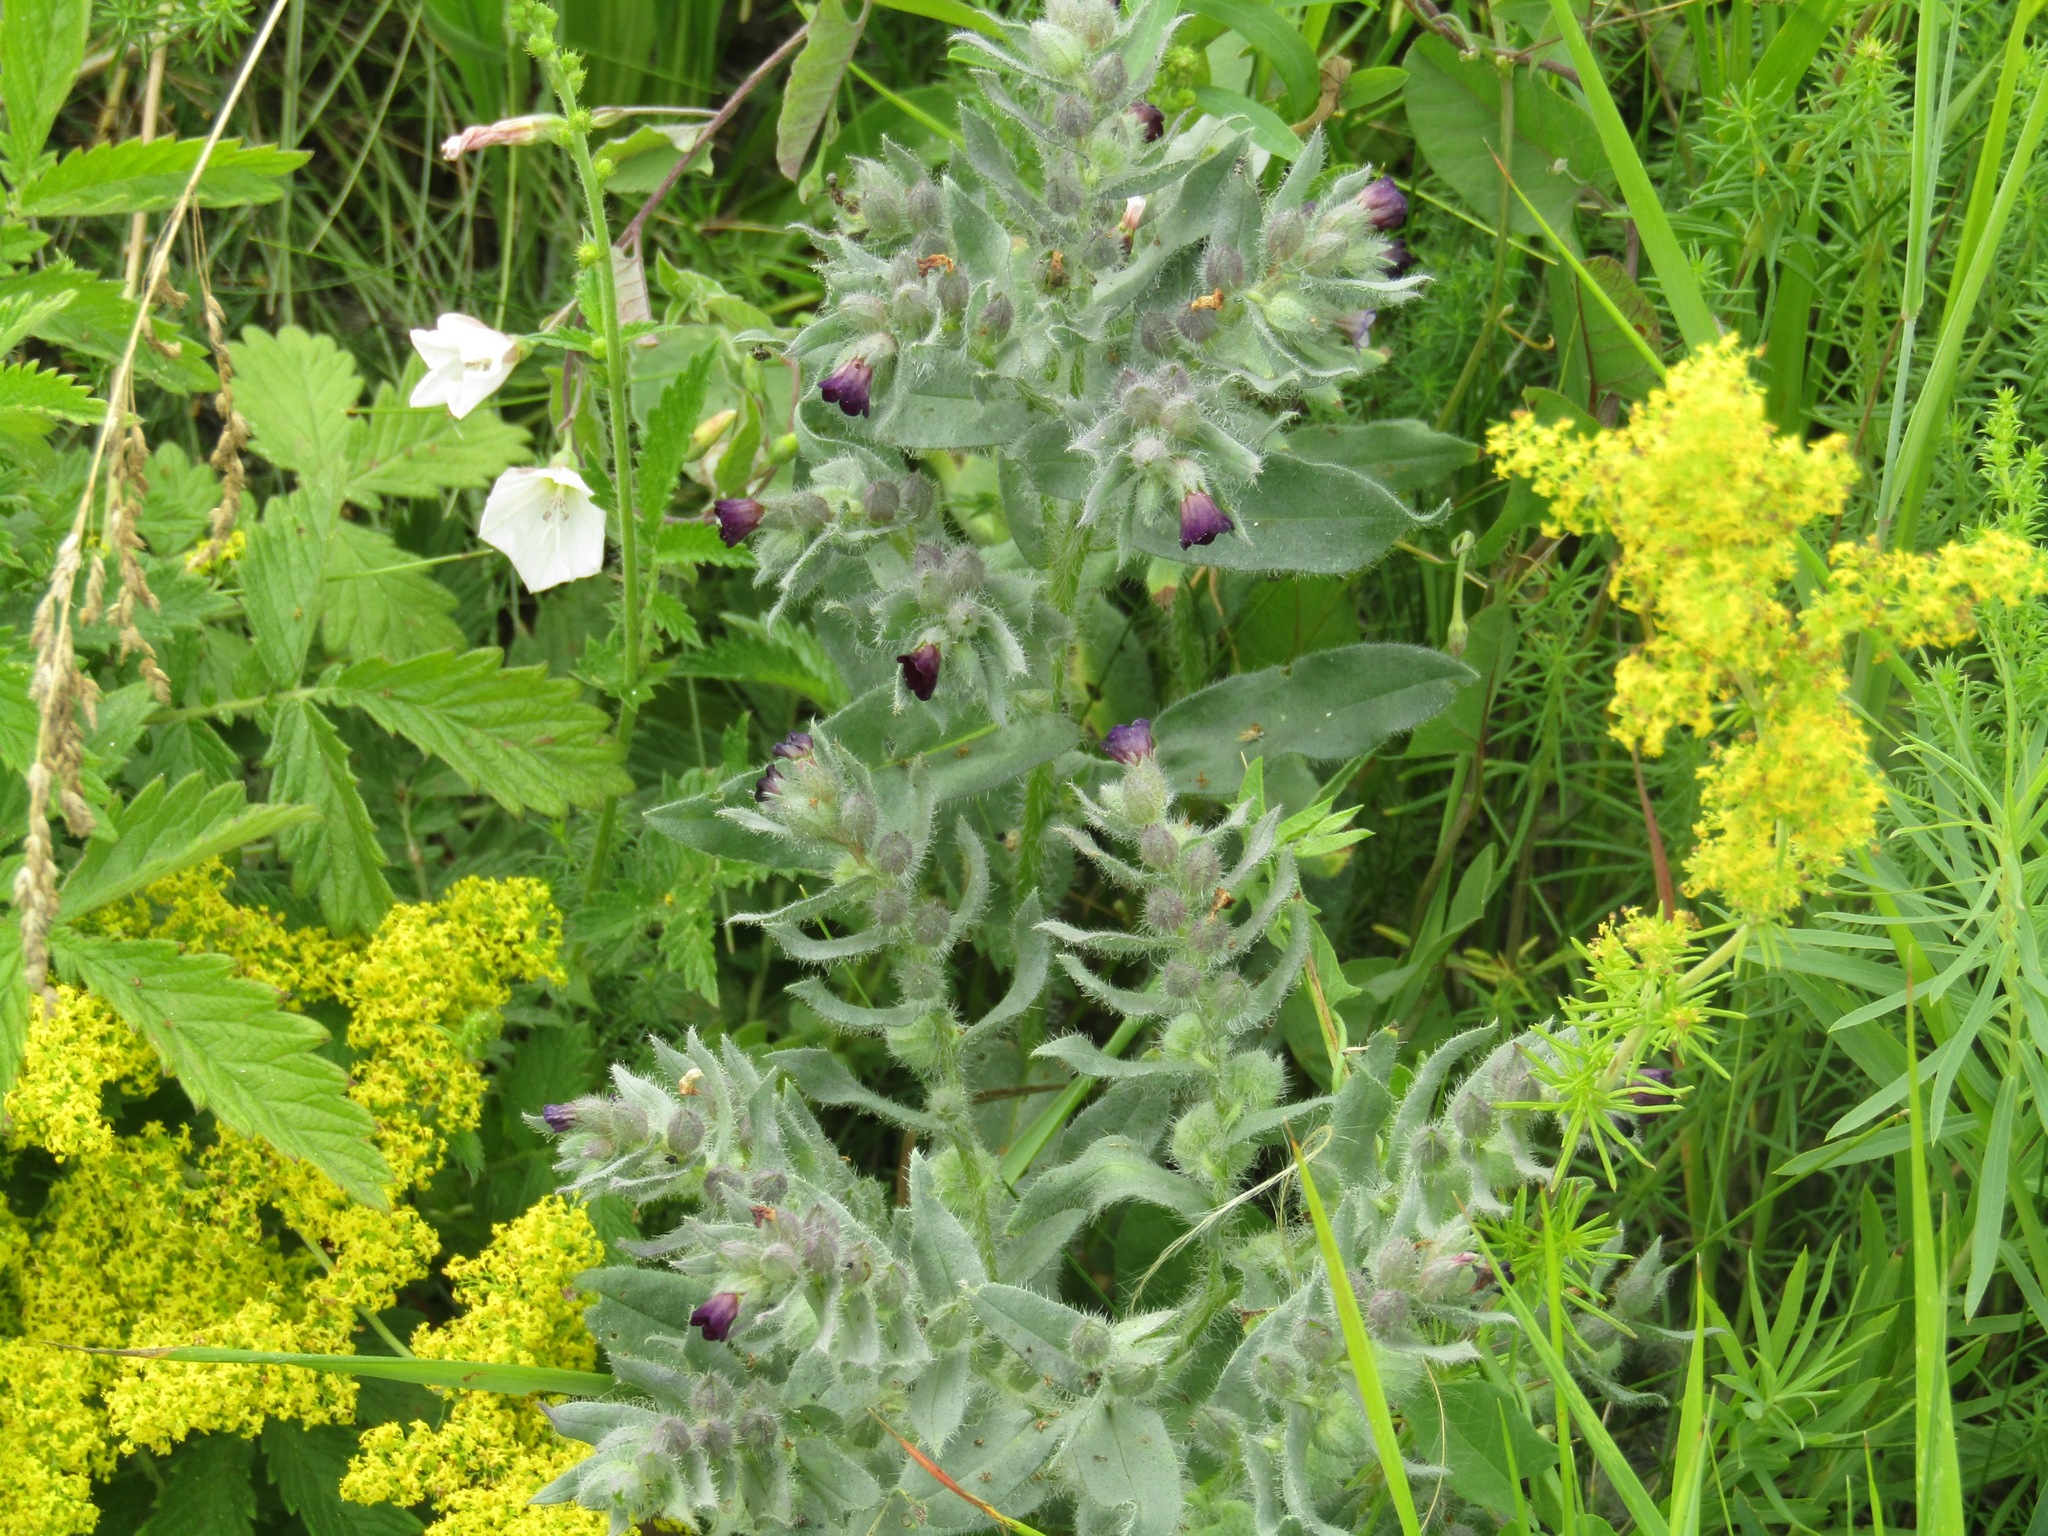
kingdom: Plantae
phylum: Tracheophyta
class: Magnoliopsida
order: Boraginales
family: Boraginaceae
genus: Nonea
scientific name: Nonea pulla
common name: Brown nonea
